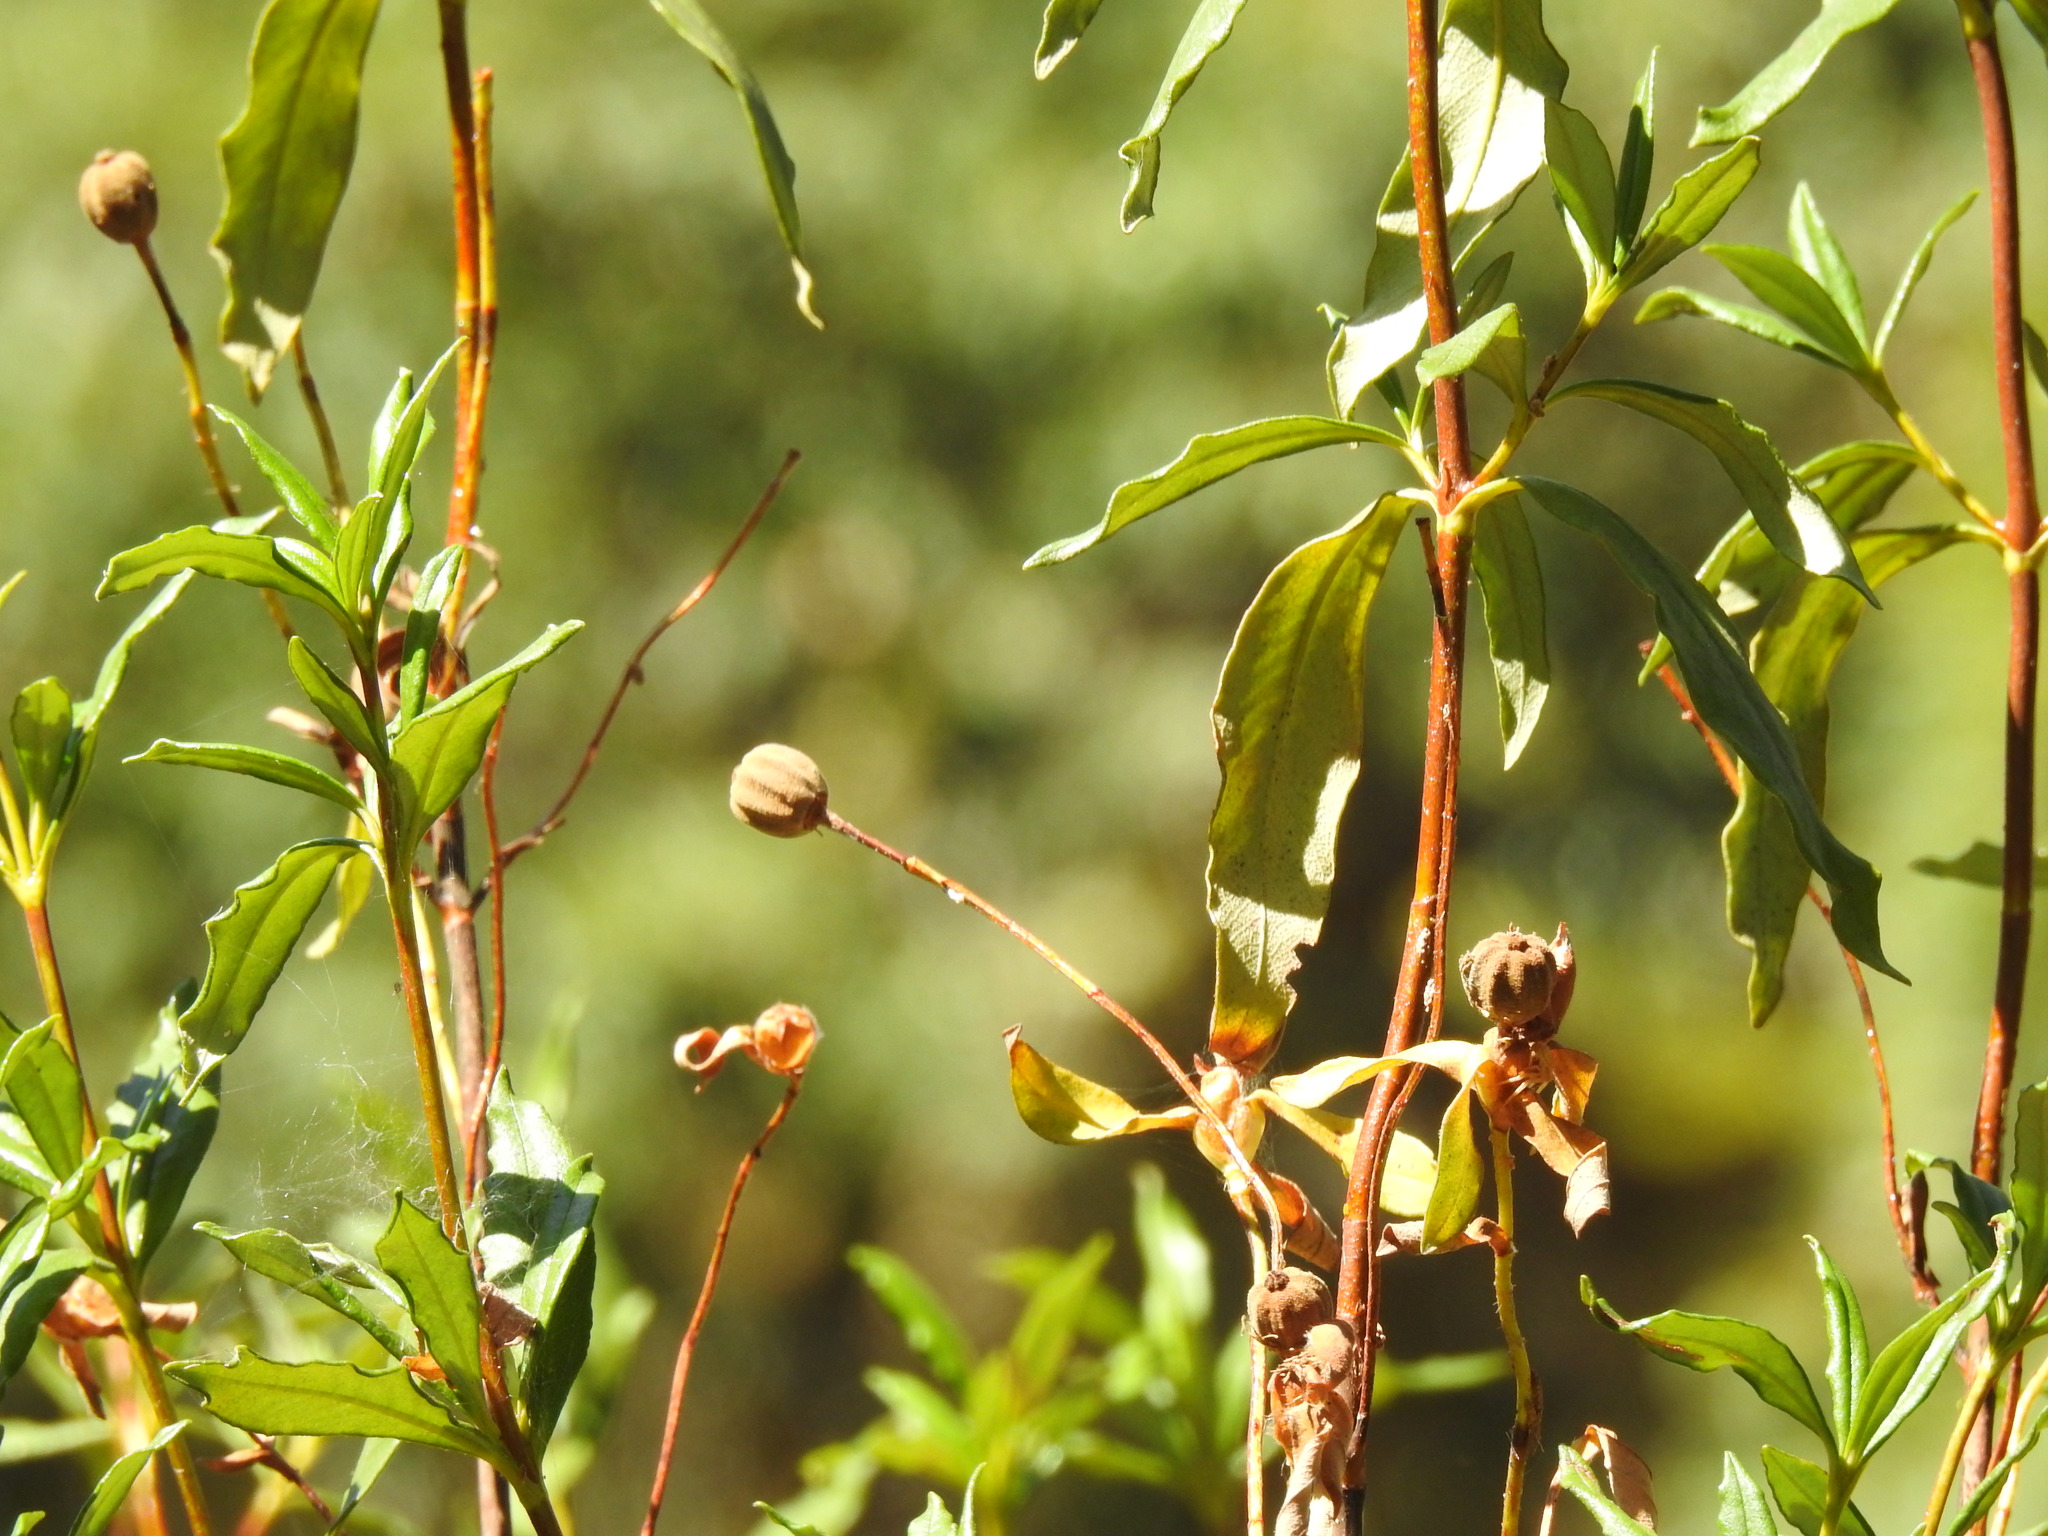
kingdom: Plantae
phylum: Tracheophyta
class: Magnoliopsida
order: Malvales
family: Cistaceae
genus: Cistus
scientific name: Cistus ladanifer
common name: Common gum cistus
